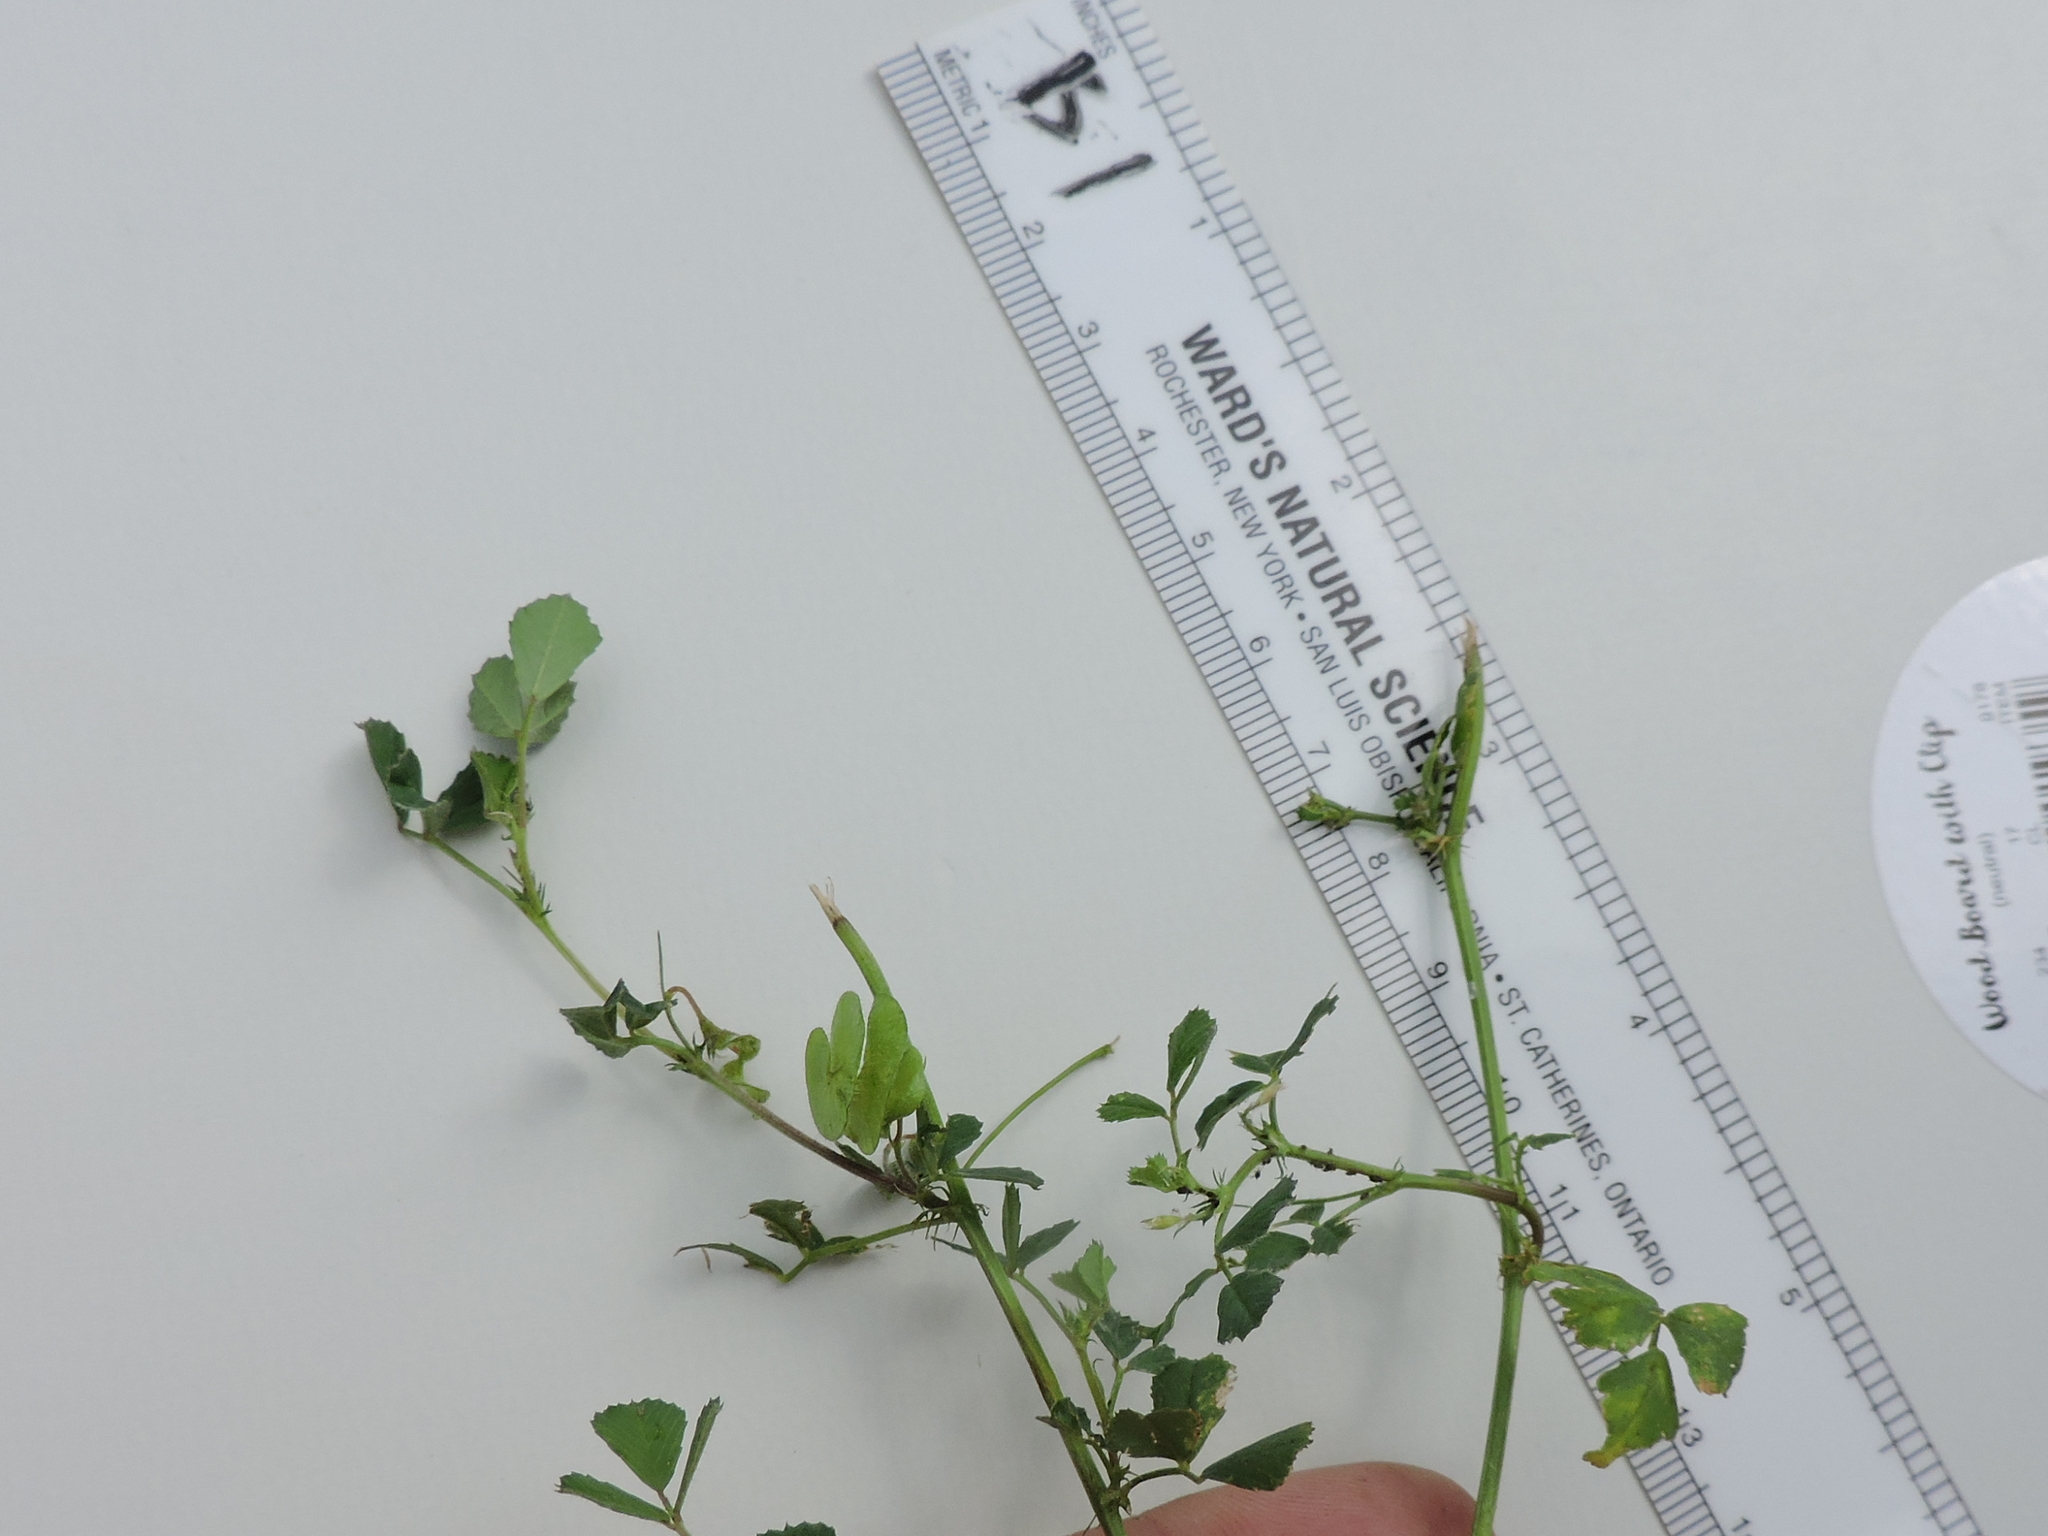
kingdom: Plantae
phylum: Tracheophyta
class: Magnoliopsida
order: Fabales
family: Fabaceae
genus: Medicago
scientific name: Medicago orbicularis
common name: Button medick
